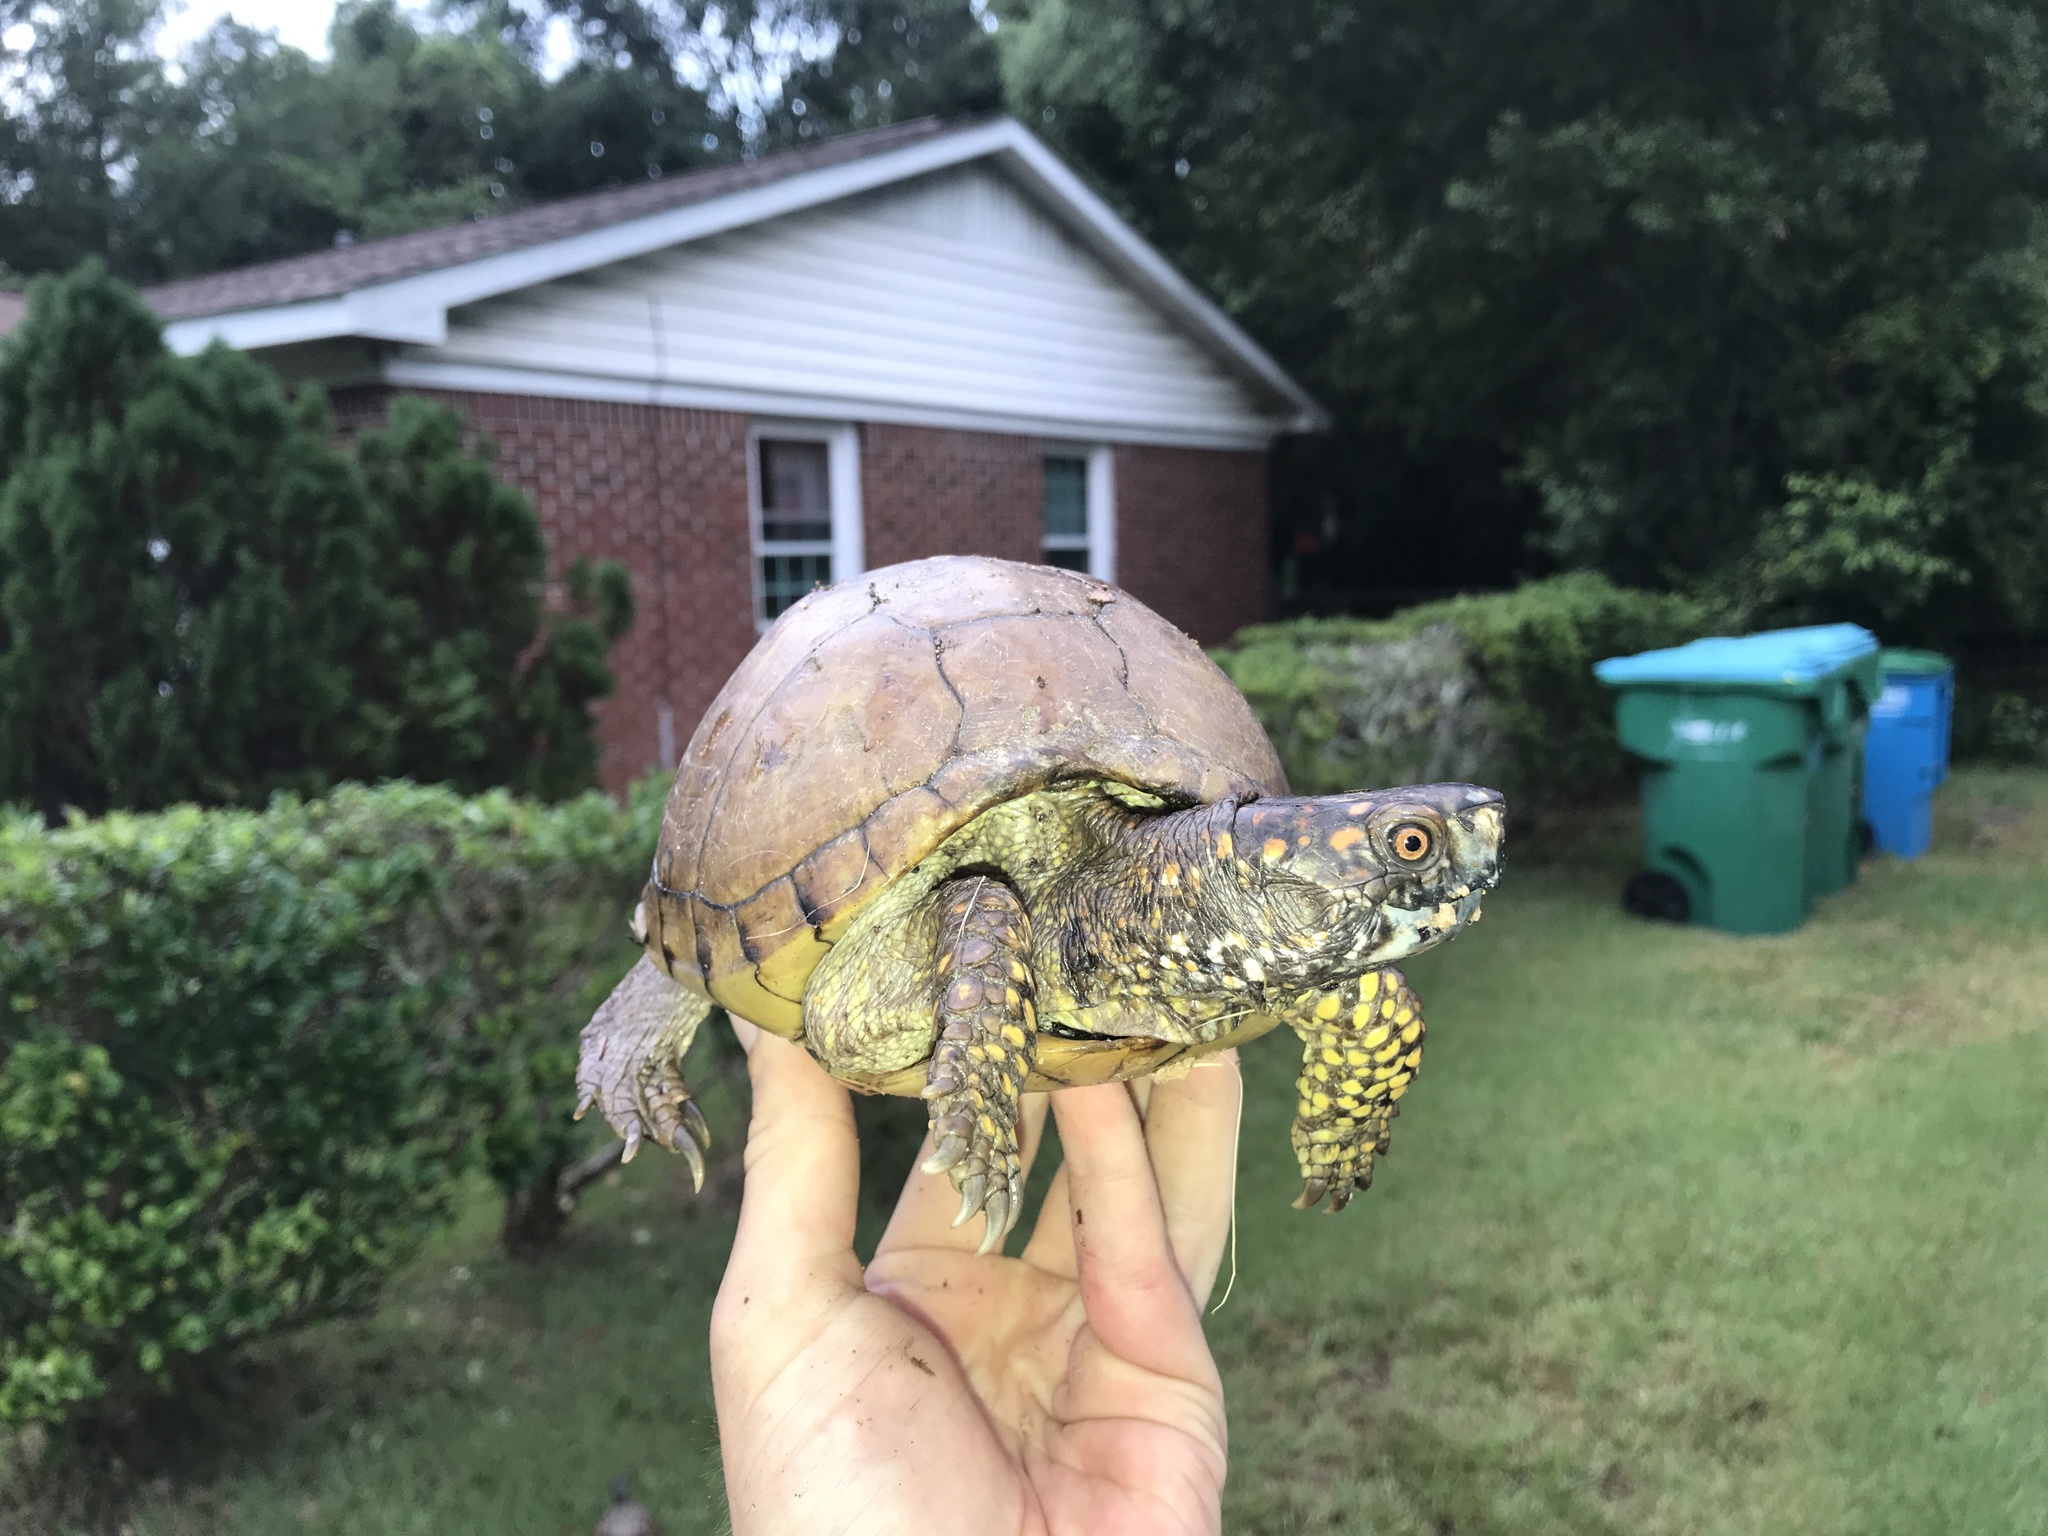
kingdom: Animalia
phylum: Chordata
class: Testudines
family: Emydidae
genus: Terrapene
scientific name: Terrapene carolina
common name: Common box turtle
